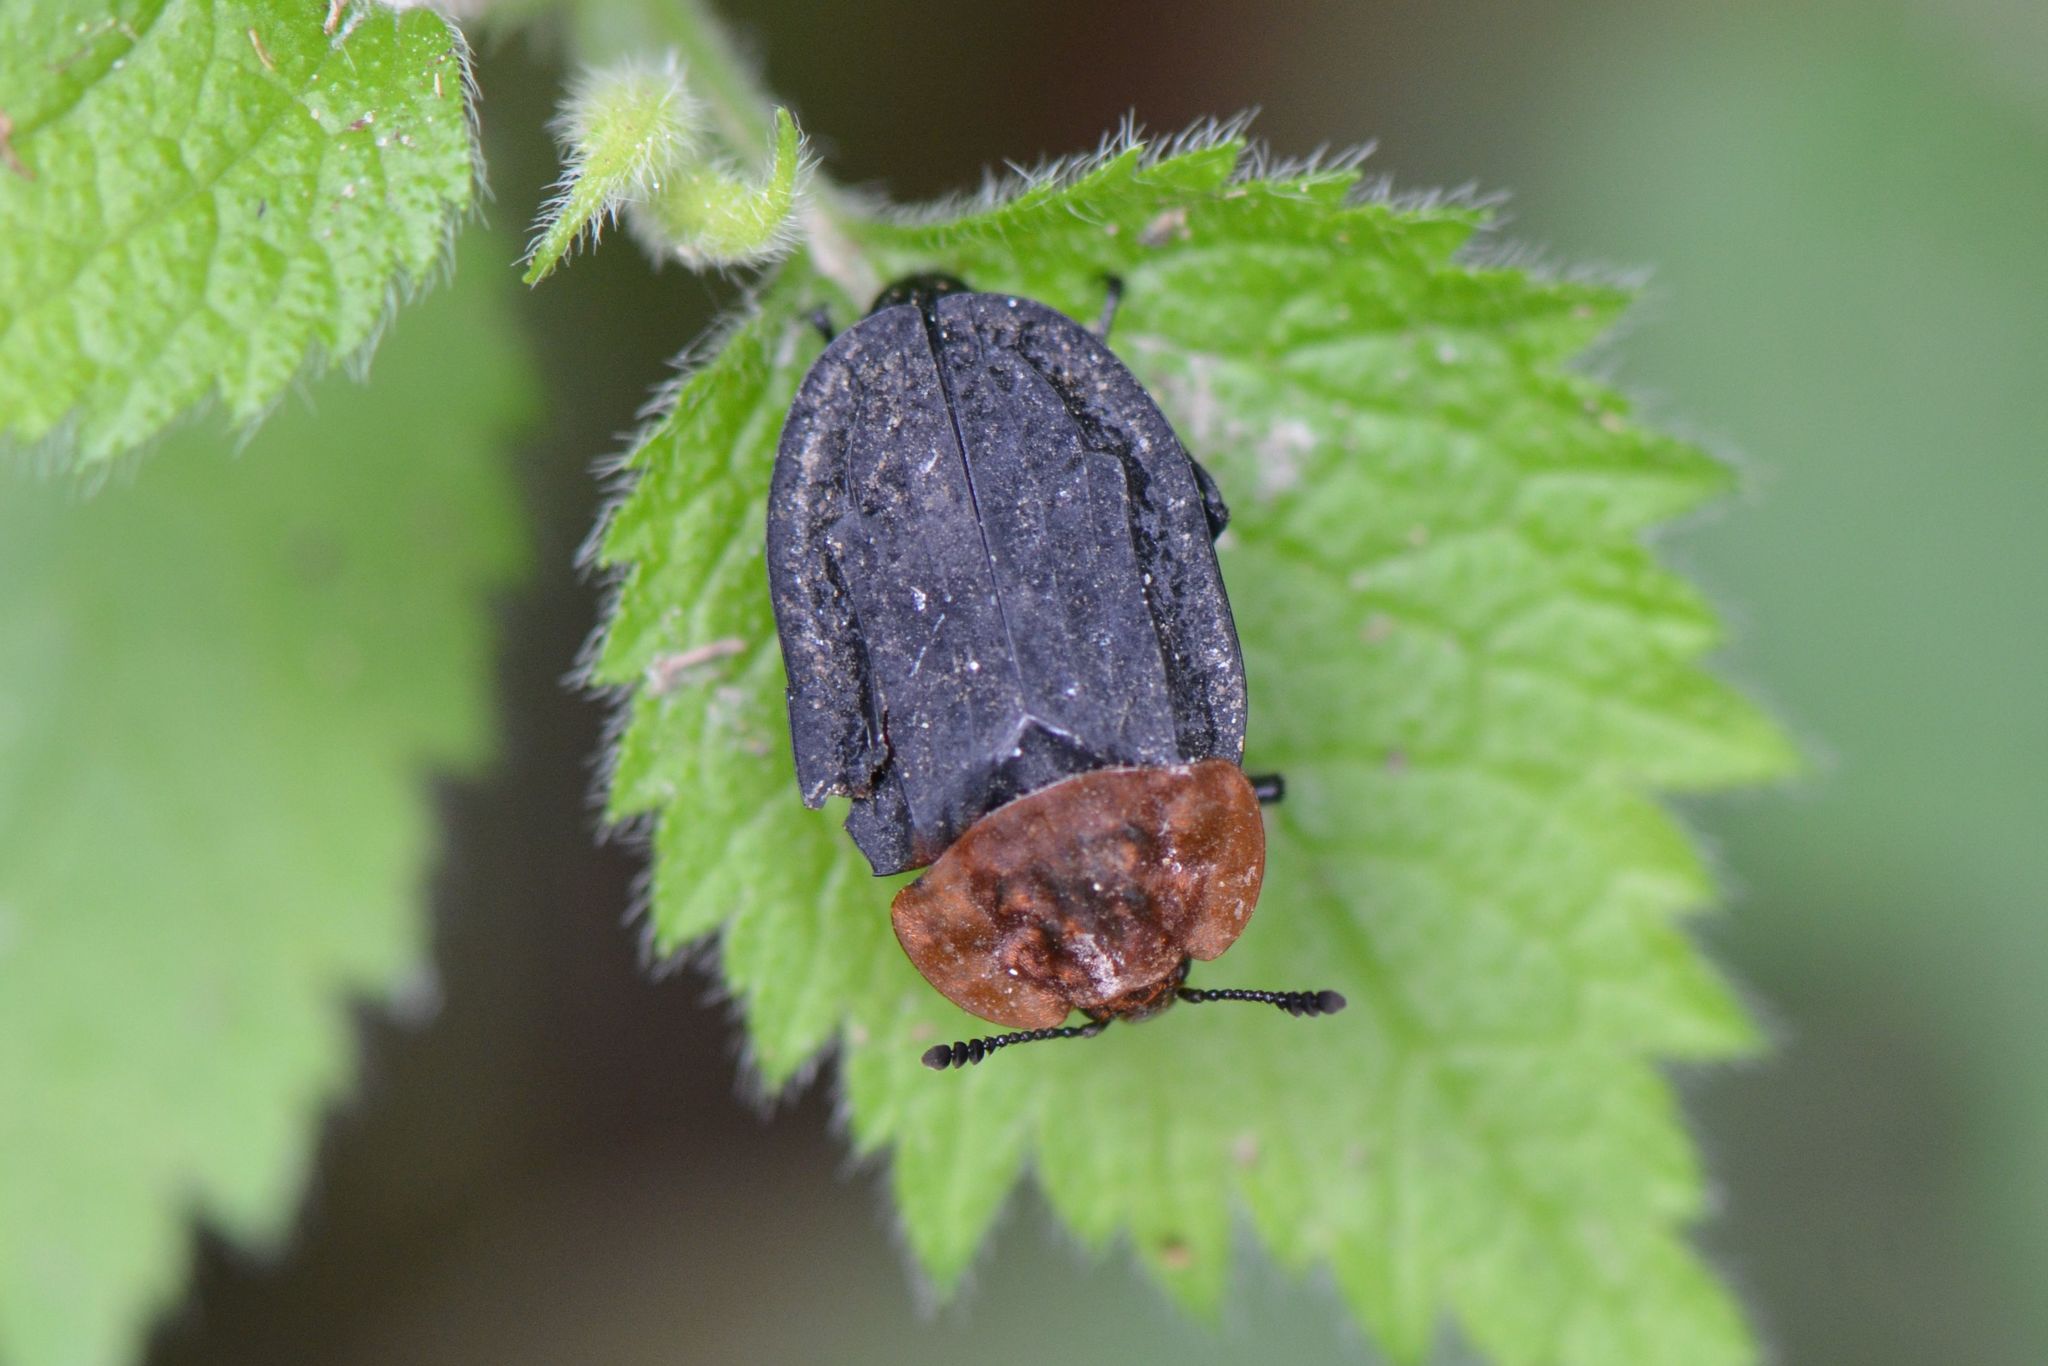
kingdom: Animalia
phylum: Arthropoda
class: Insecta
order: Coleoptera
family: Staphylinidae
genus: Oiceoptoma
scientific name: Oiceoptoma thoracicum
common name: Red-breasted carrion beetle
